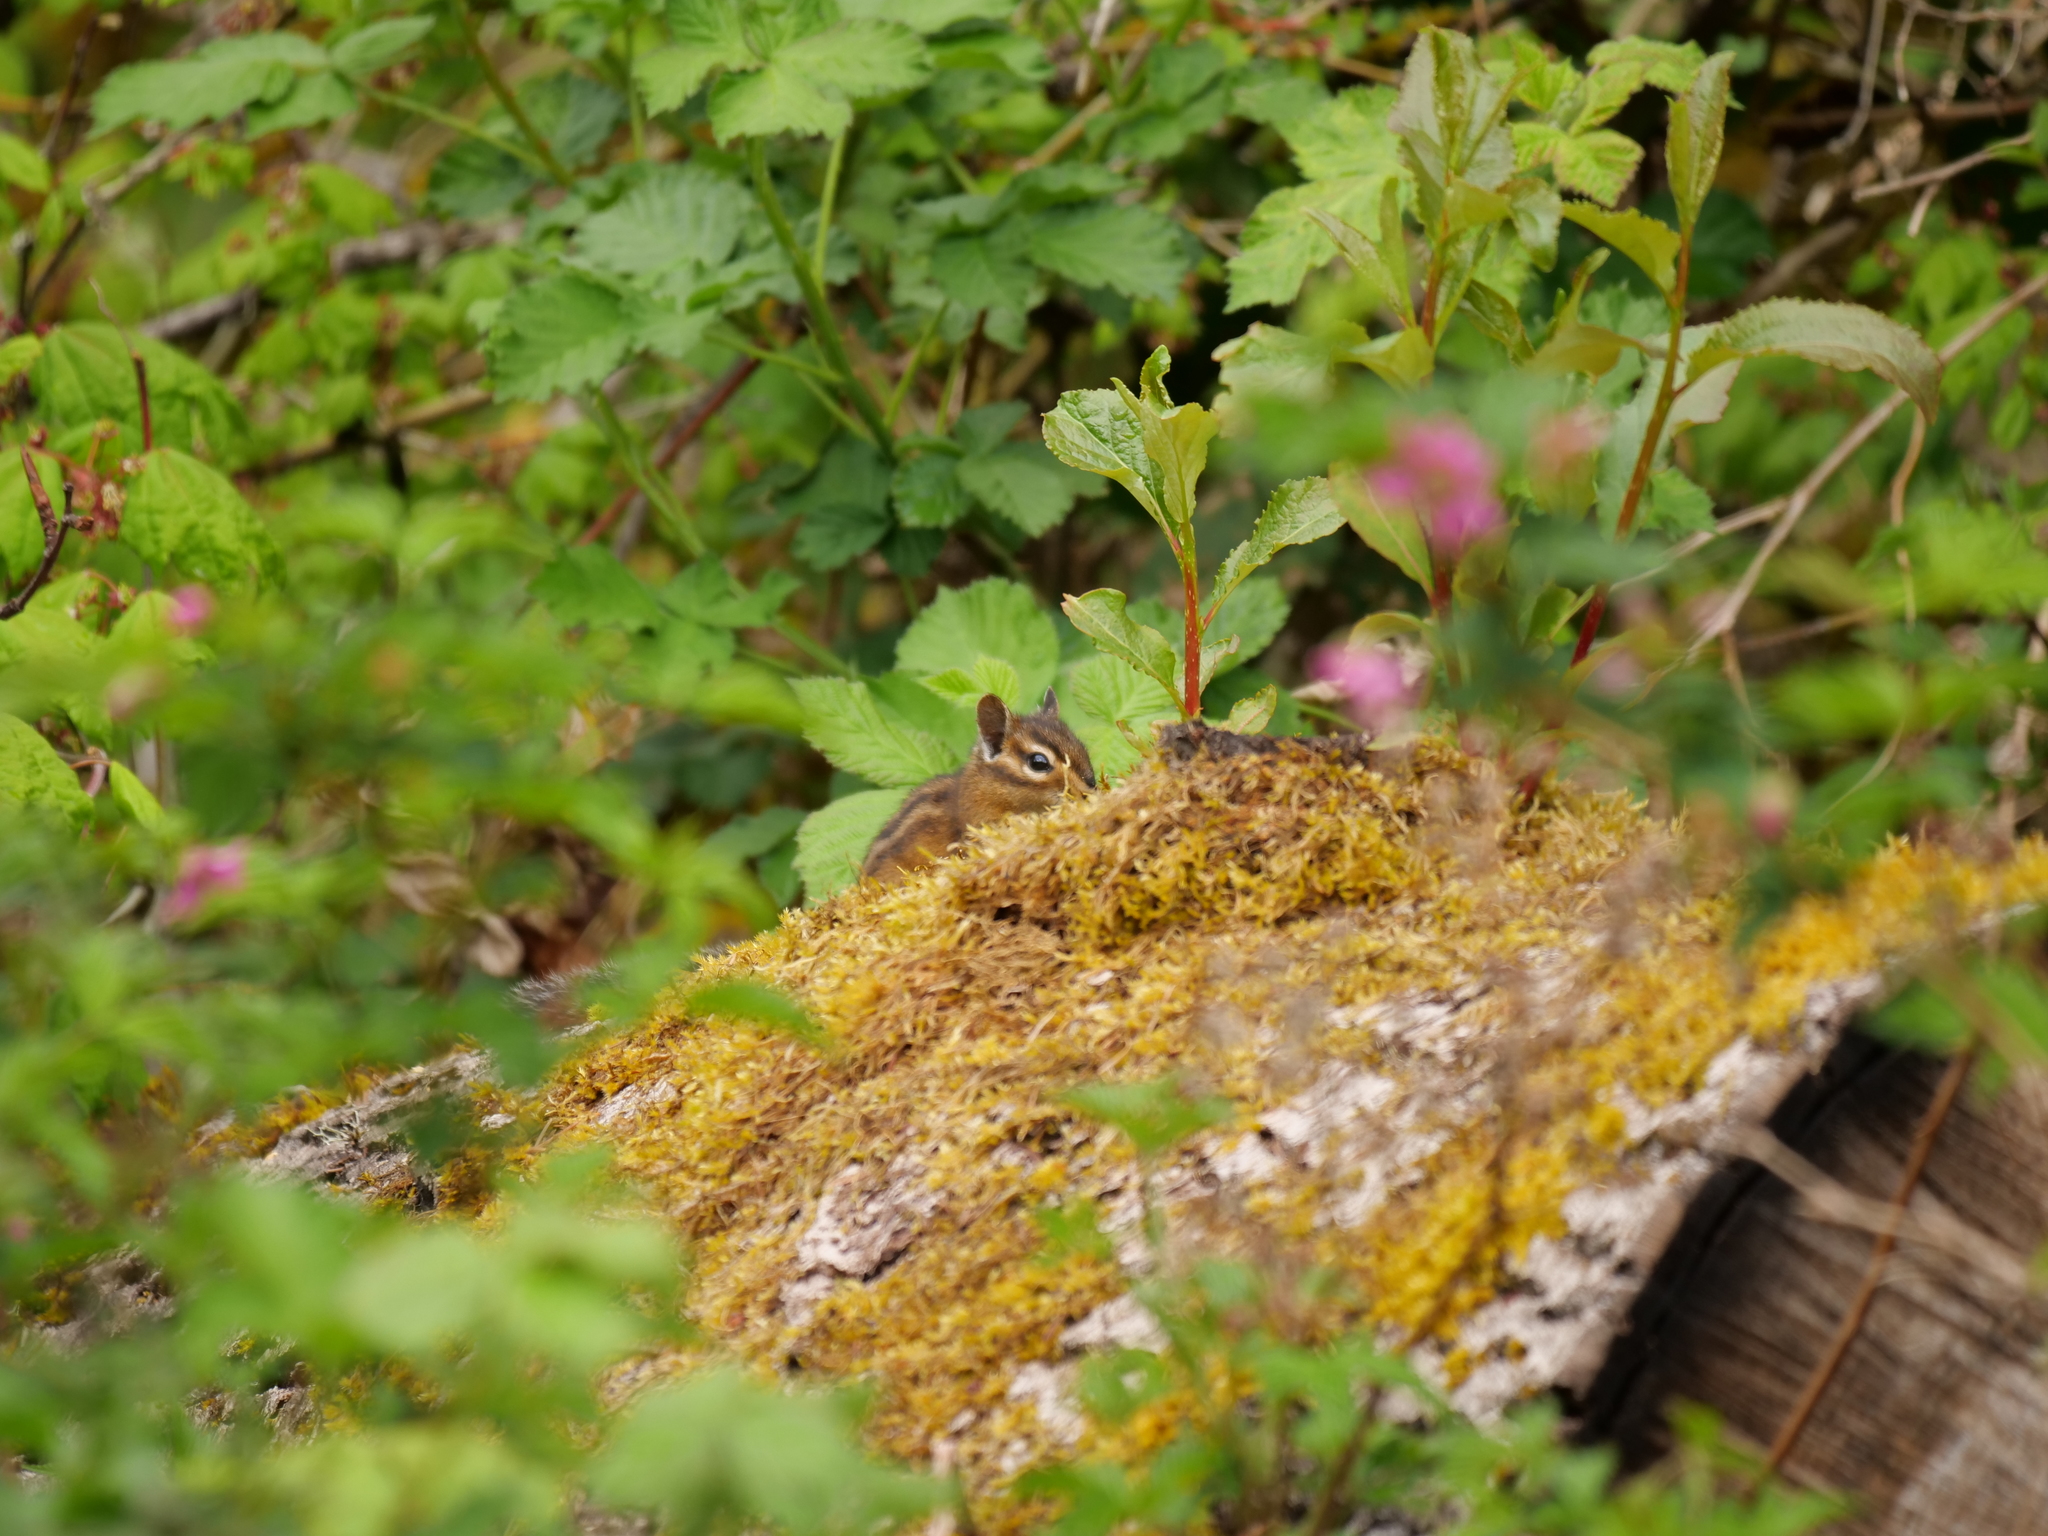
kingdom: Animalia
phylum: Chordata
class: Mammalia
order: Rodentia
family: Sciuridae
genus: Tamias
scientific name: Tamias townsendii
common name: Townsend's chipmunk
